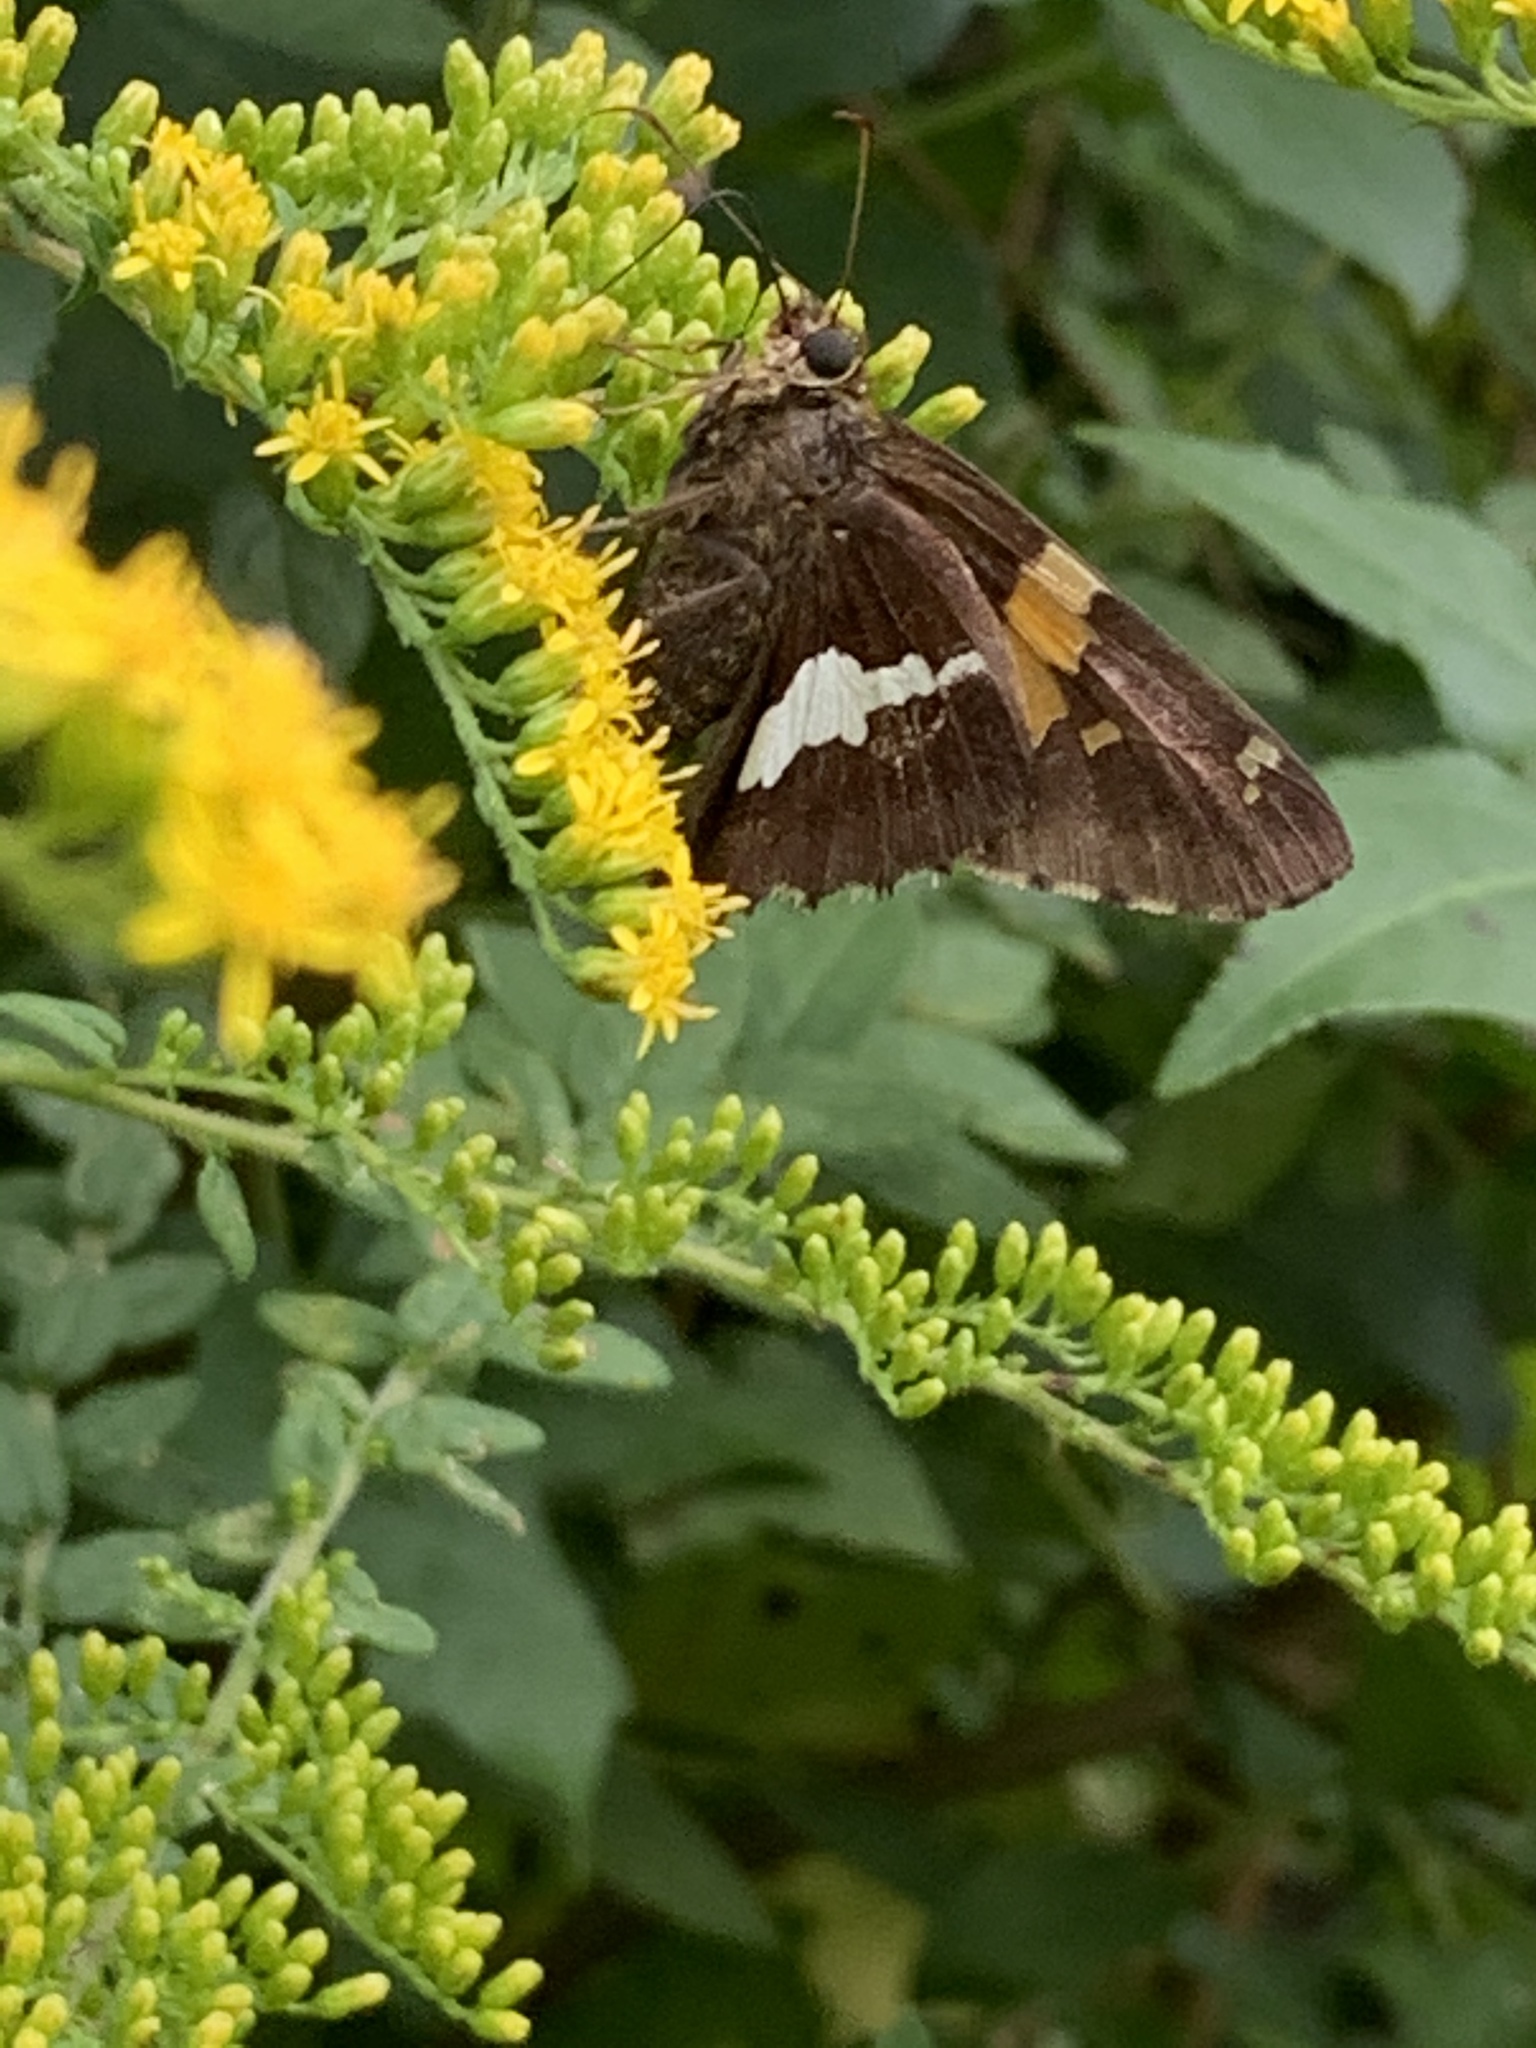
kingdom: Animalia
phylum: Arthropoda
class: Insecta
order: Lepidoptera
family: Hesperiidae
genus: Epargyreus
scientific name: Epargyreus clarus
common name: Silver-spotted skipper
